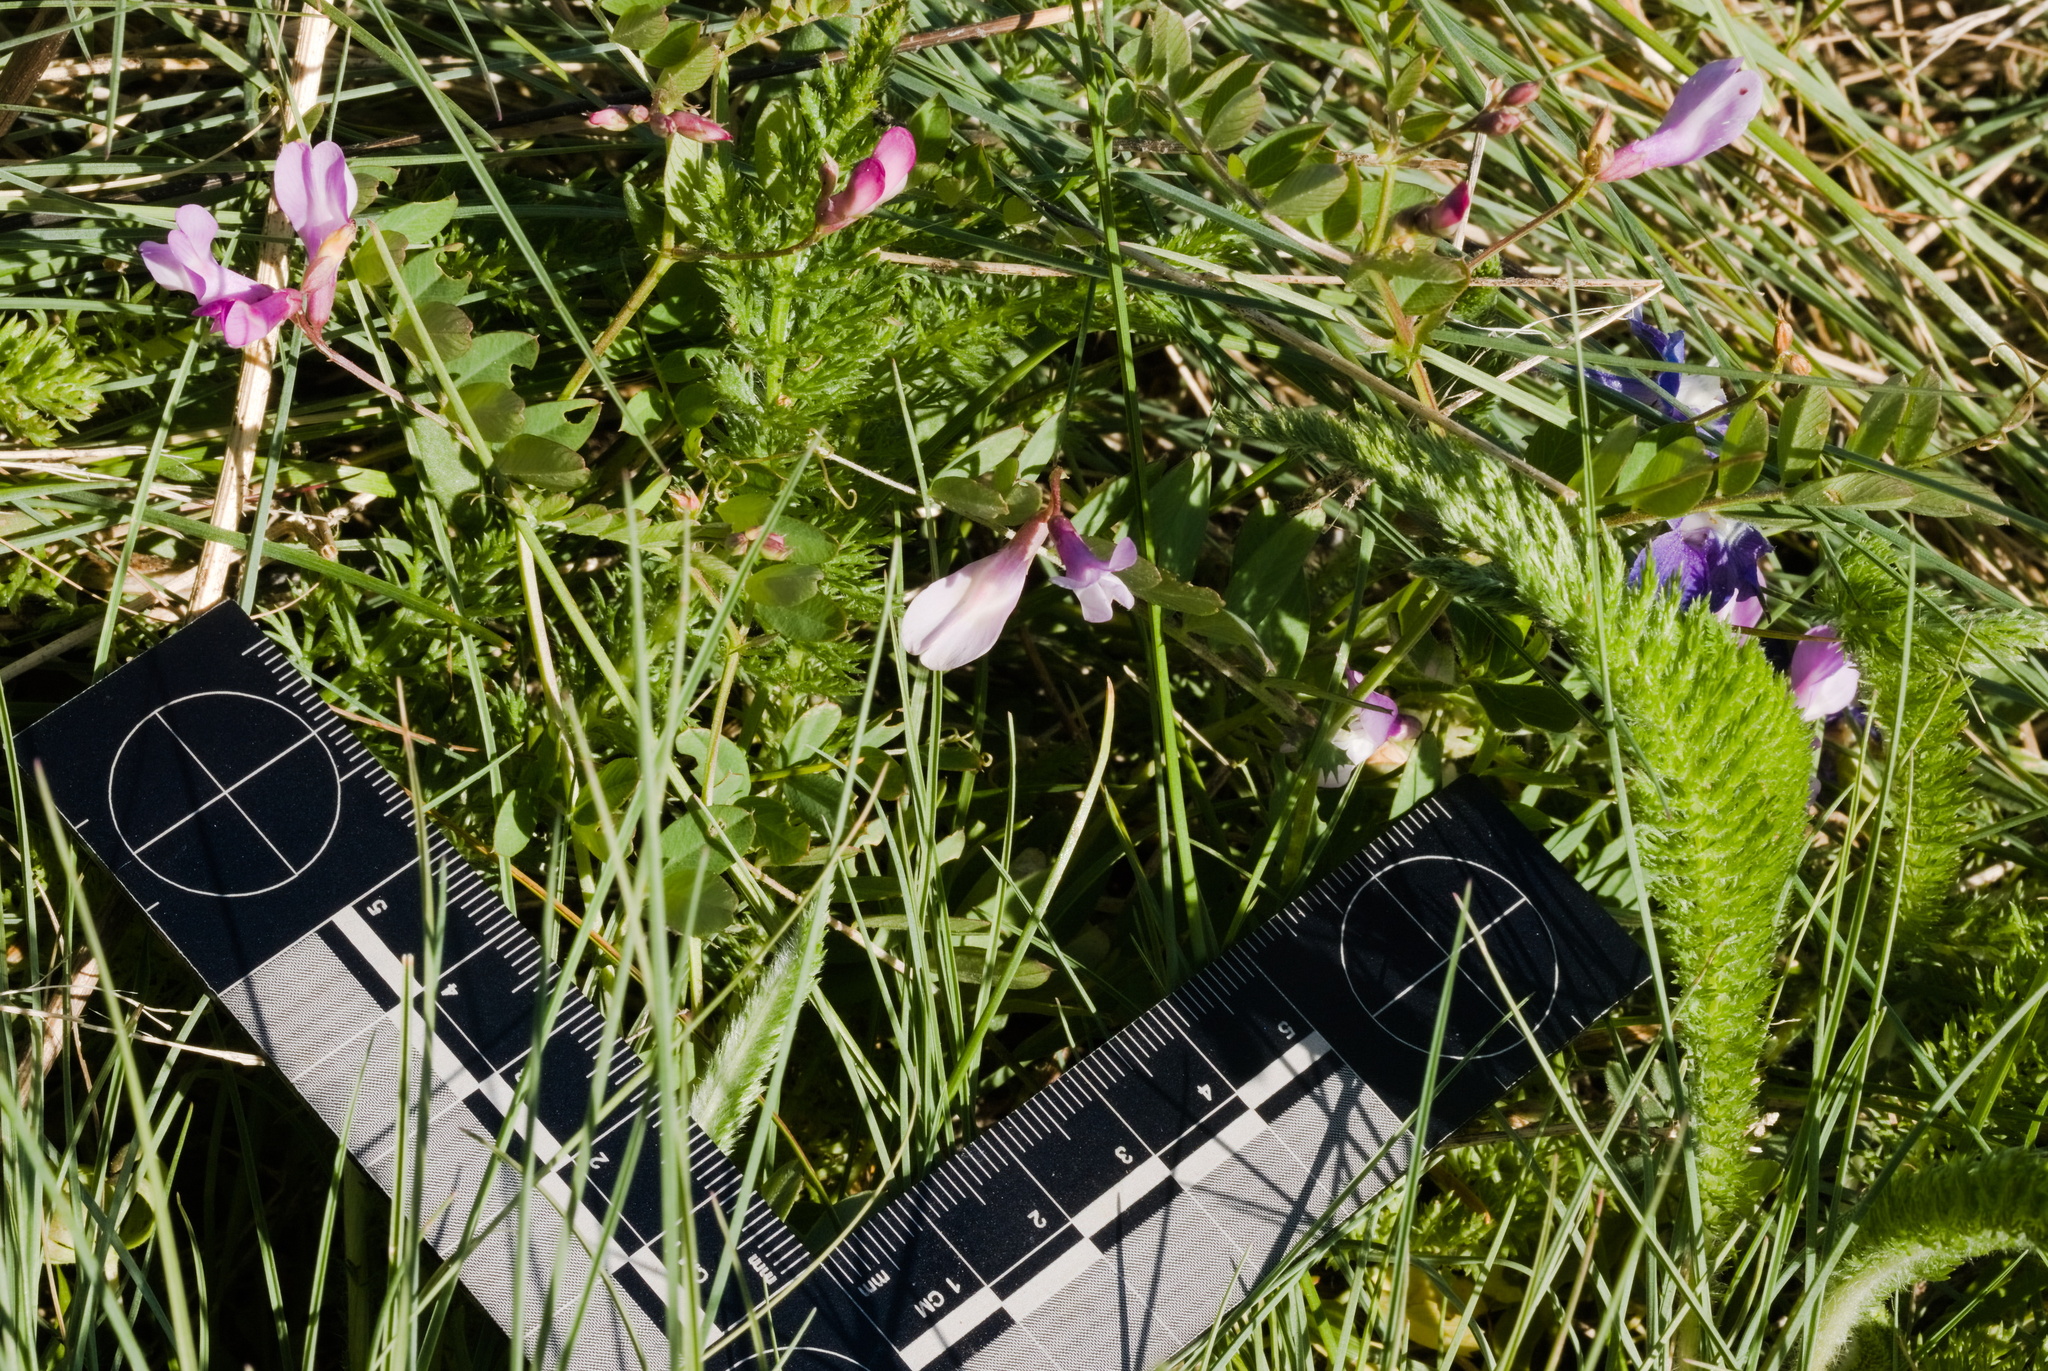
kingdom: Plantae
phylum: Tracheophyta
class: Magnoliopsida
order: Fabales
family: Fabaceae
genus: Vicia
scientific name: Vicia americana
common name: American vetch
